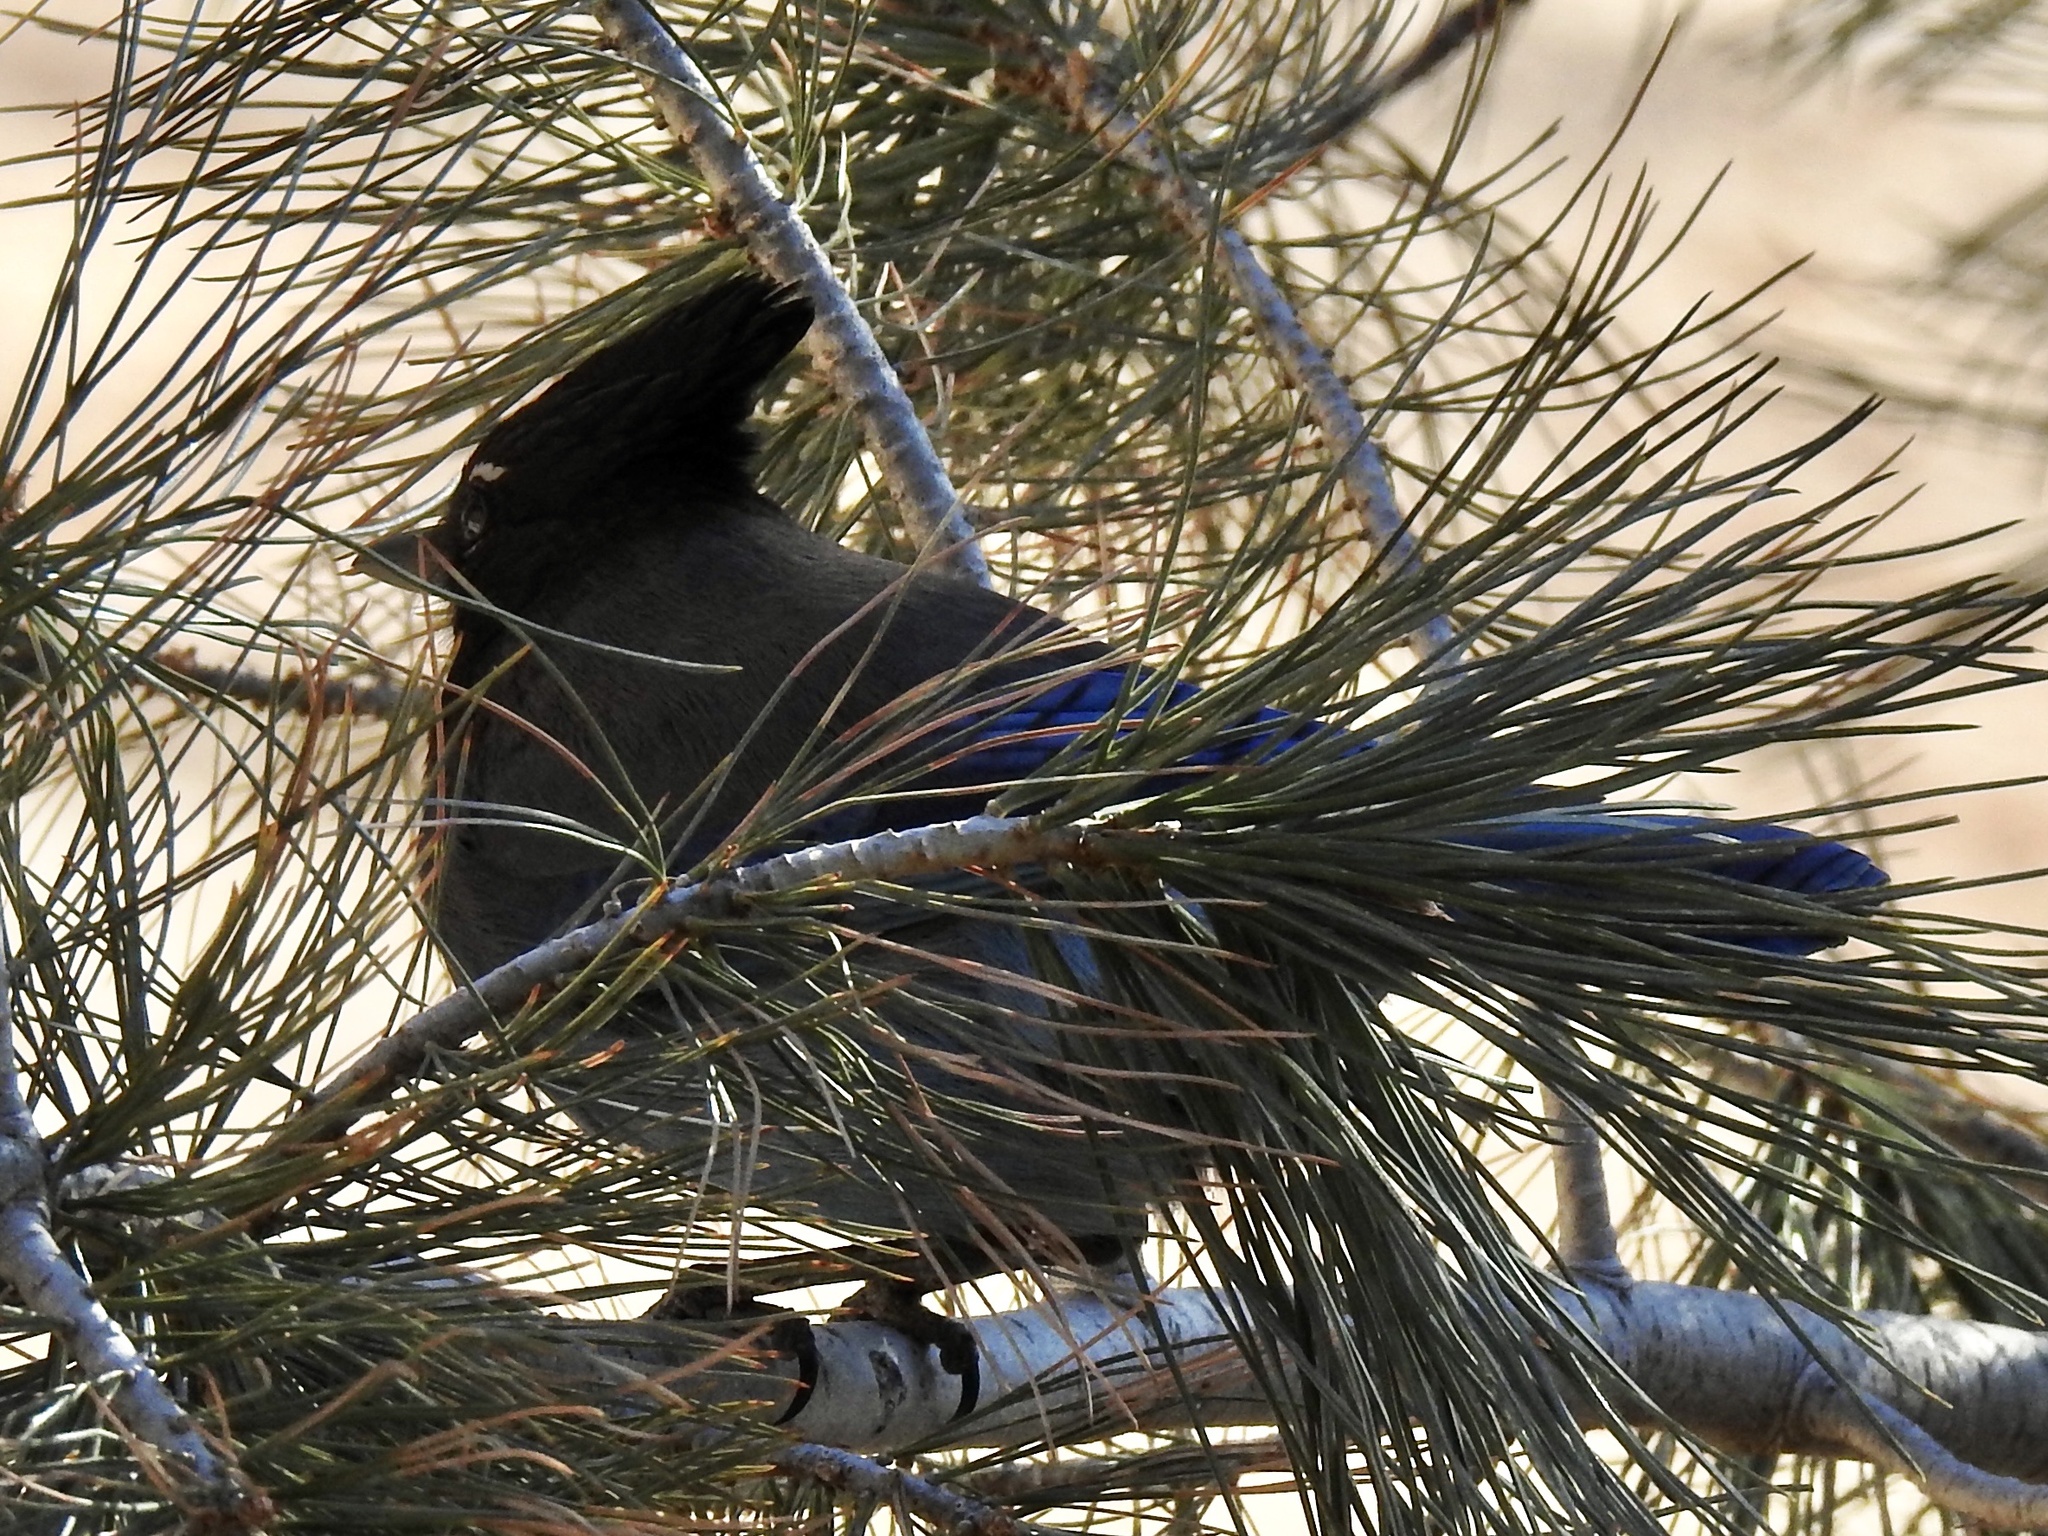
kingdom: Animalia
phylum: Chordata
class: Aves
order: Passeriformes
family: Corvidae
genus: Cyanocitta
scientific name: Cyanocitta stelleri
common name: Steller's jay
